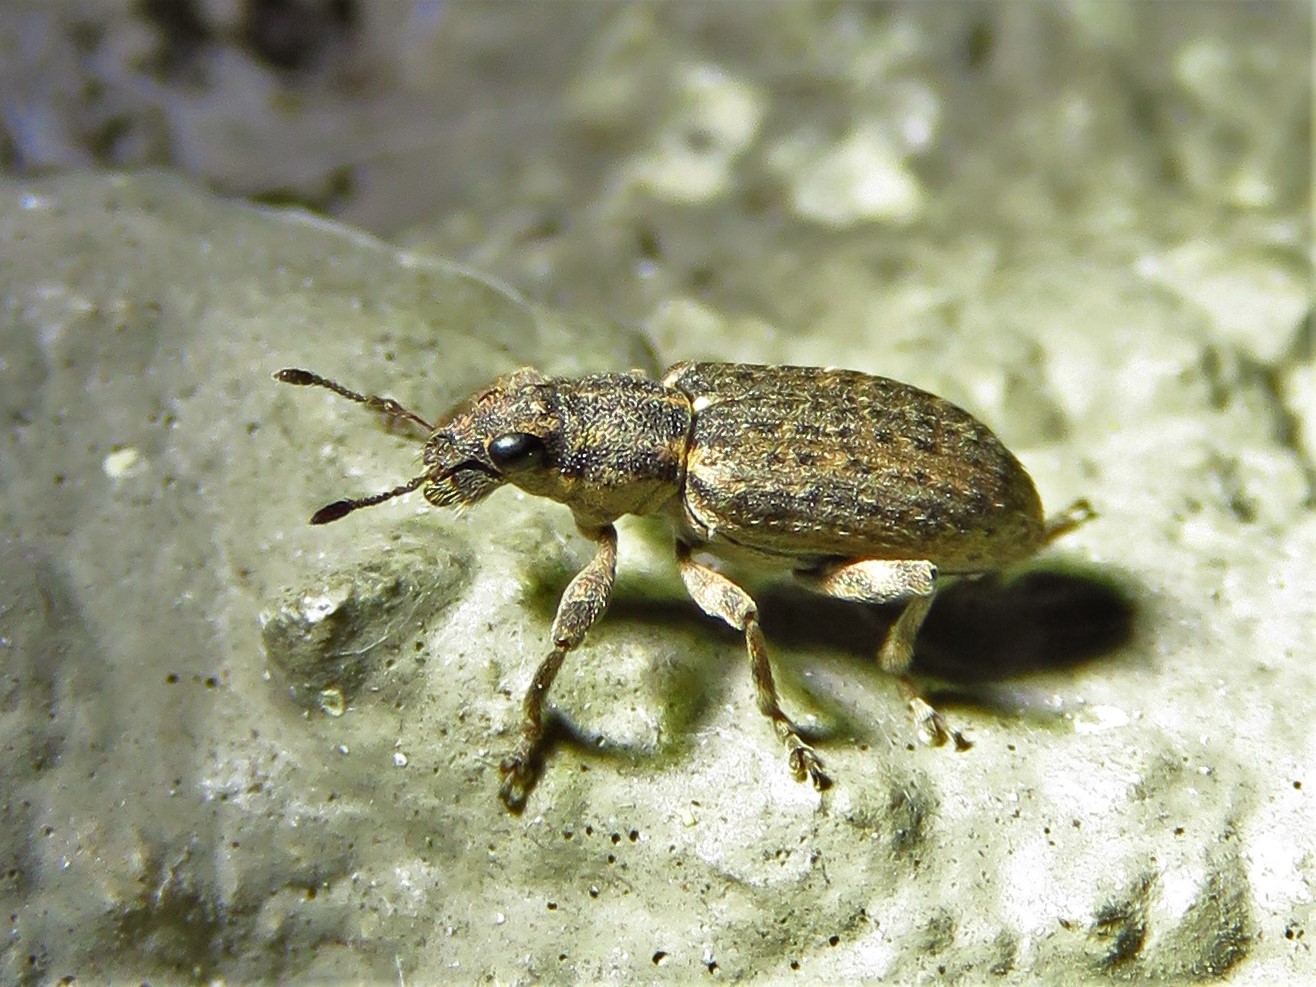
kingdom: Animalia
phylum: Arthropoda
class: Insecta
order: Coleoptera
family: Curculionidae
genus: Sitones
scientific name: Sitones californius
